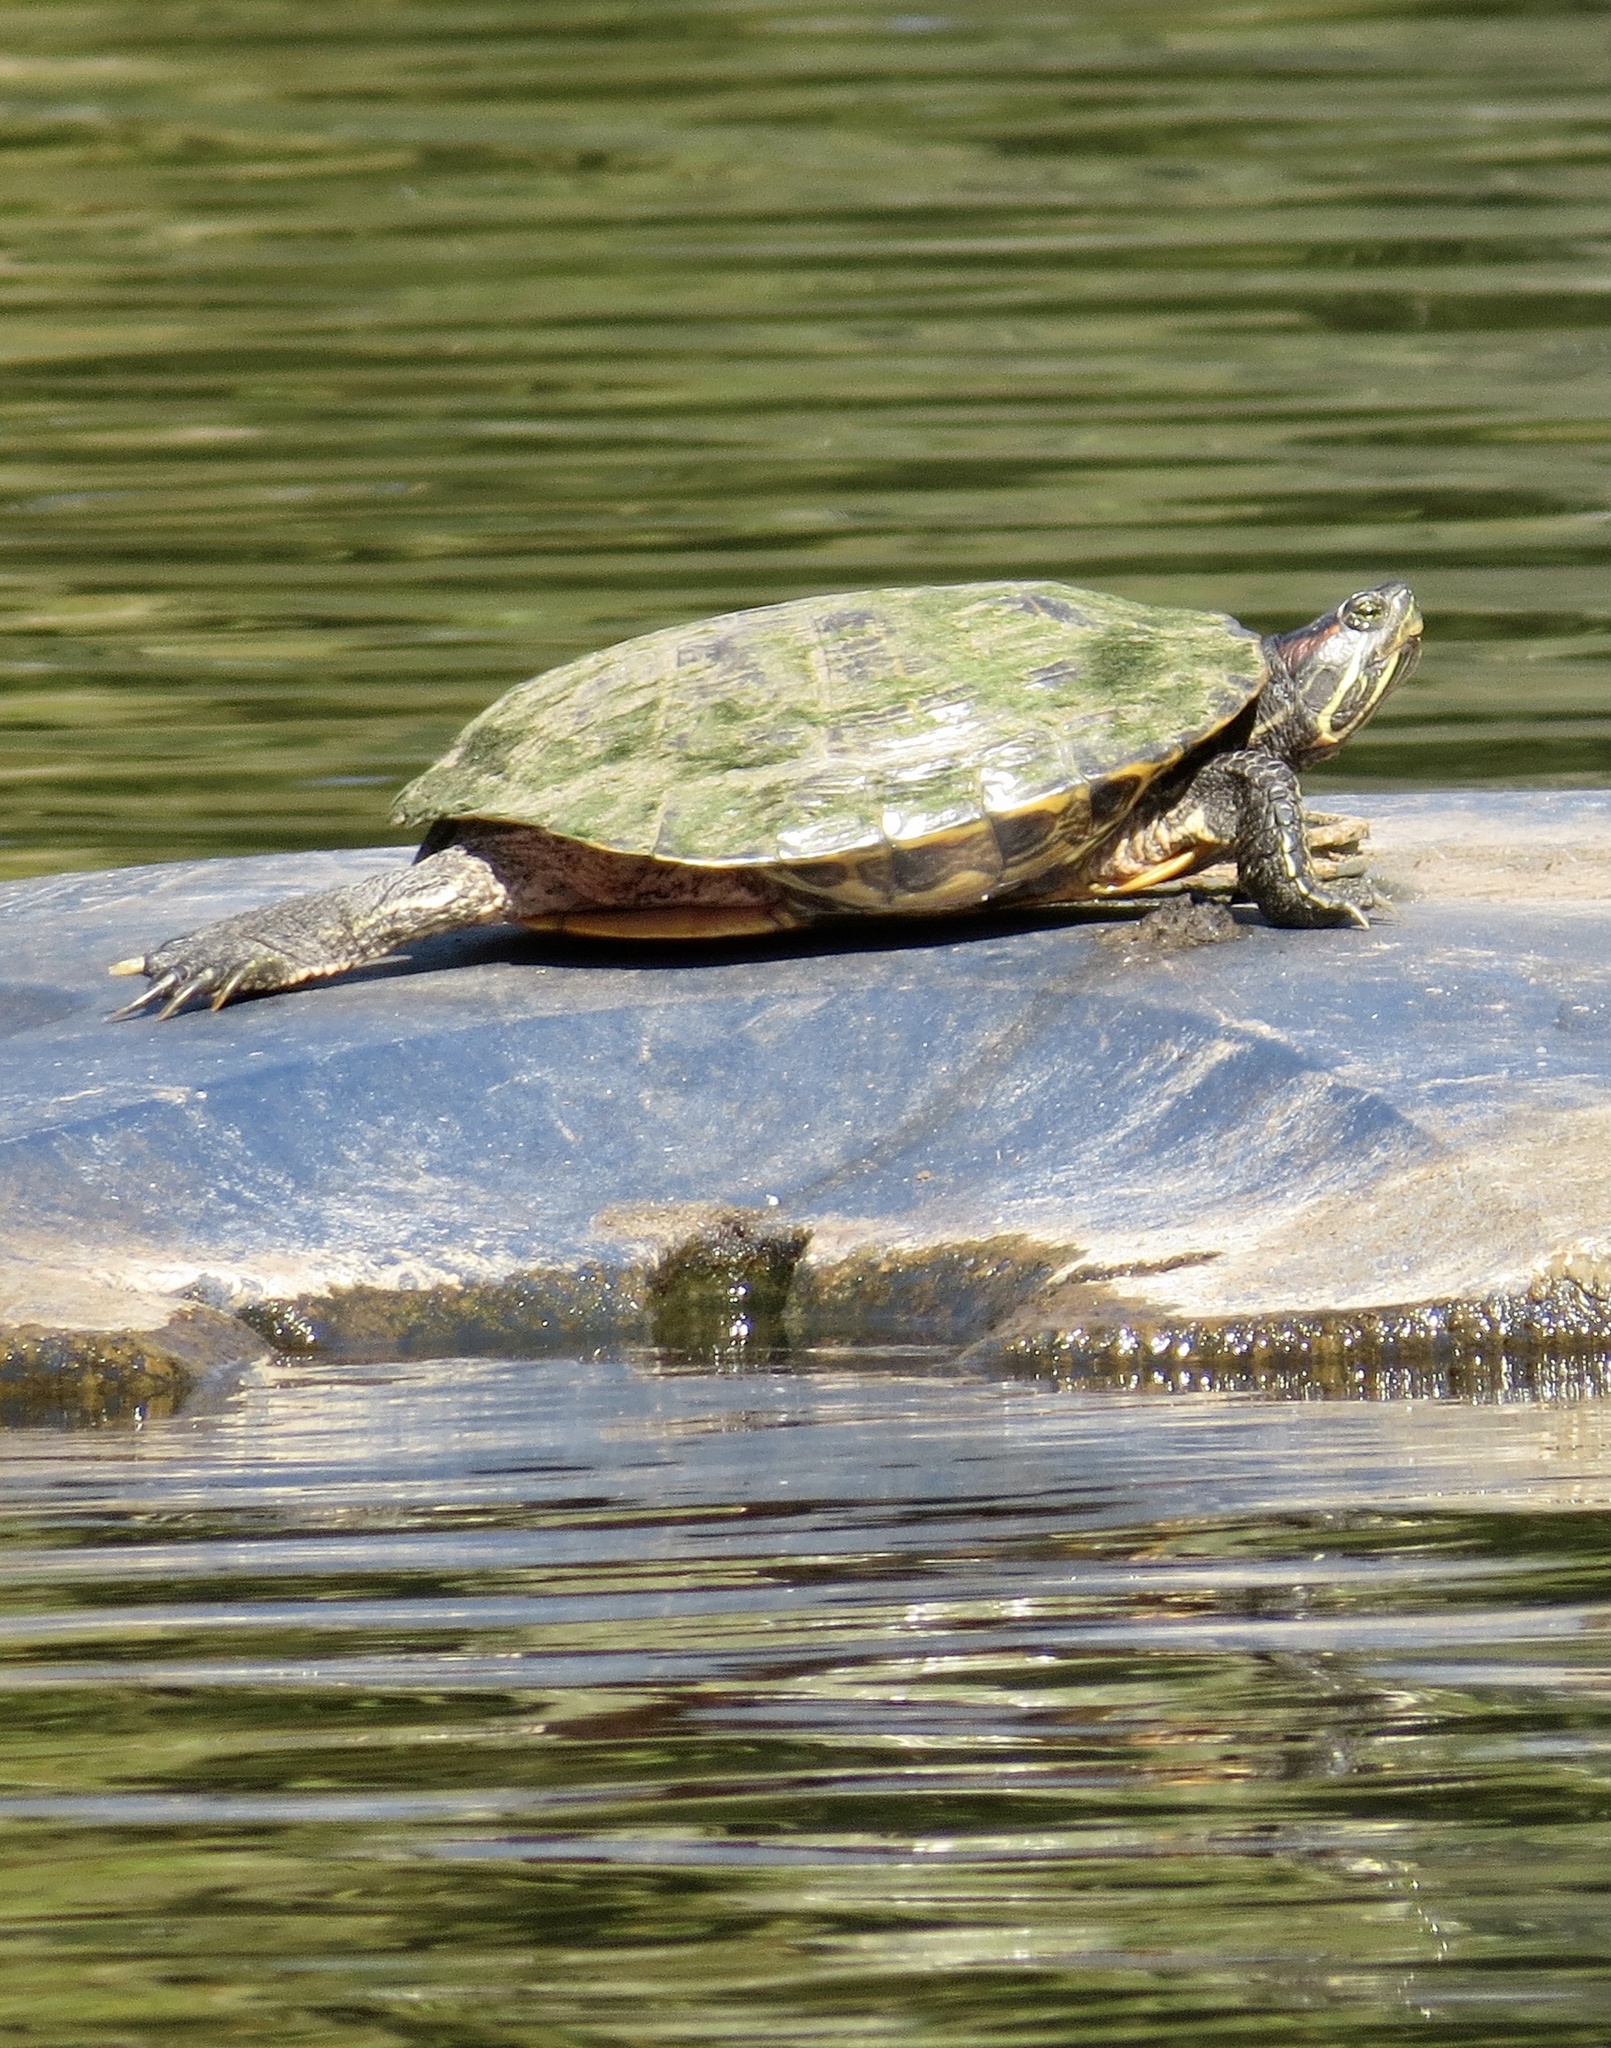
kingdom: Animalia
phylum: Chordata
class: Testudines
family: Emydidae
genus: Trachemys
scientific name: Trachemys scripta
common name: Slider
